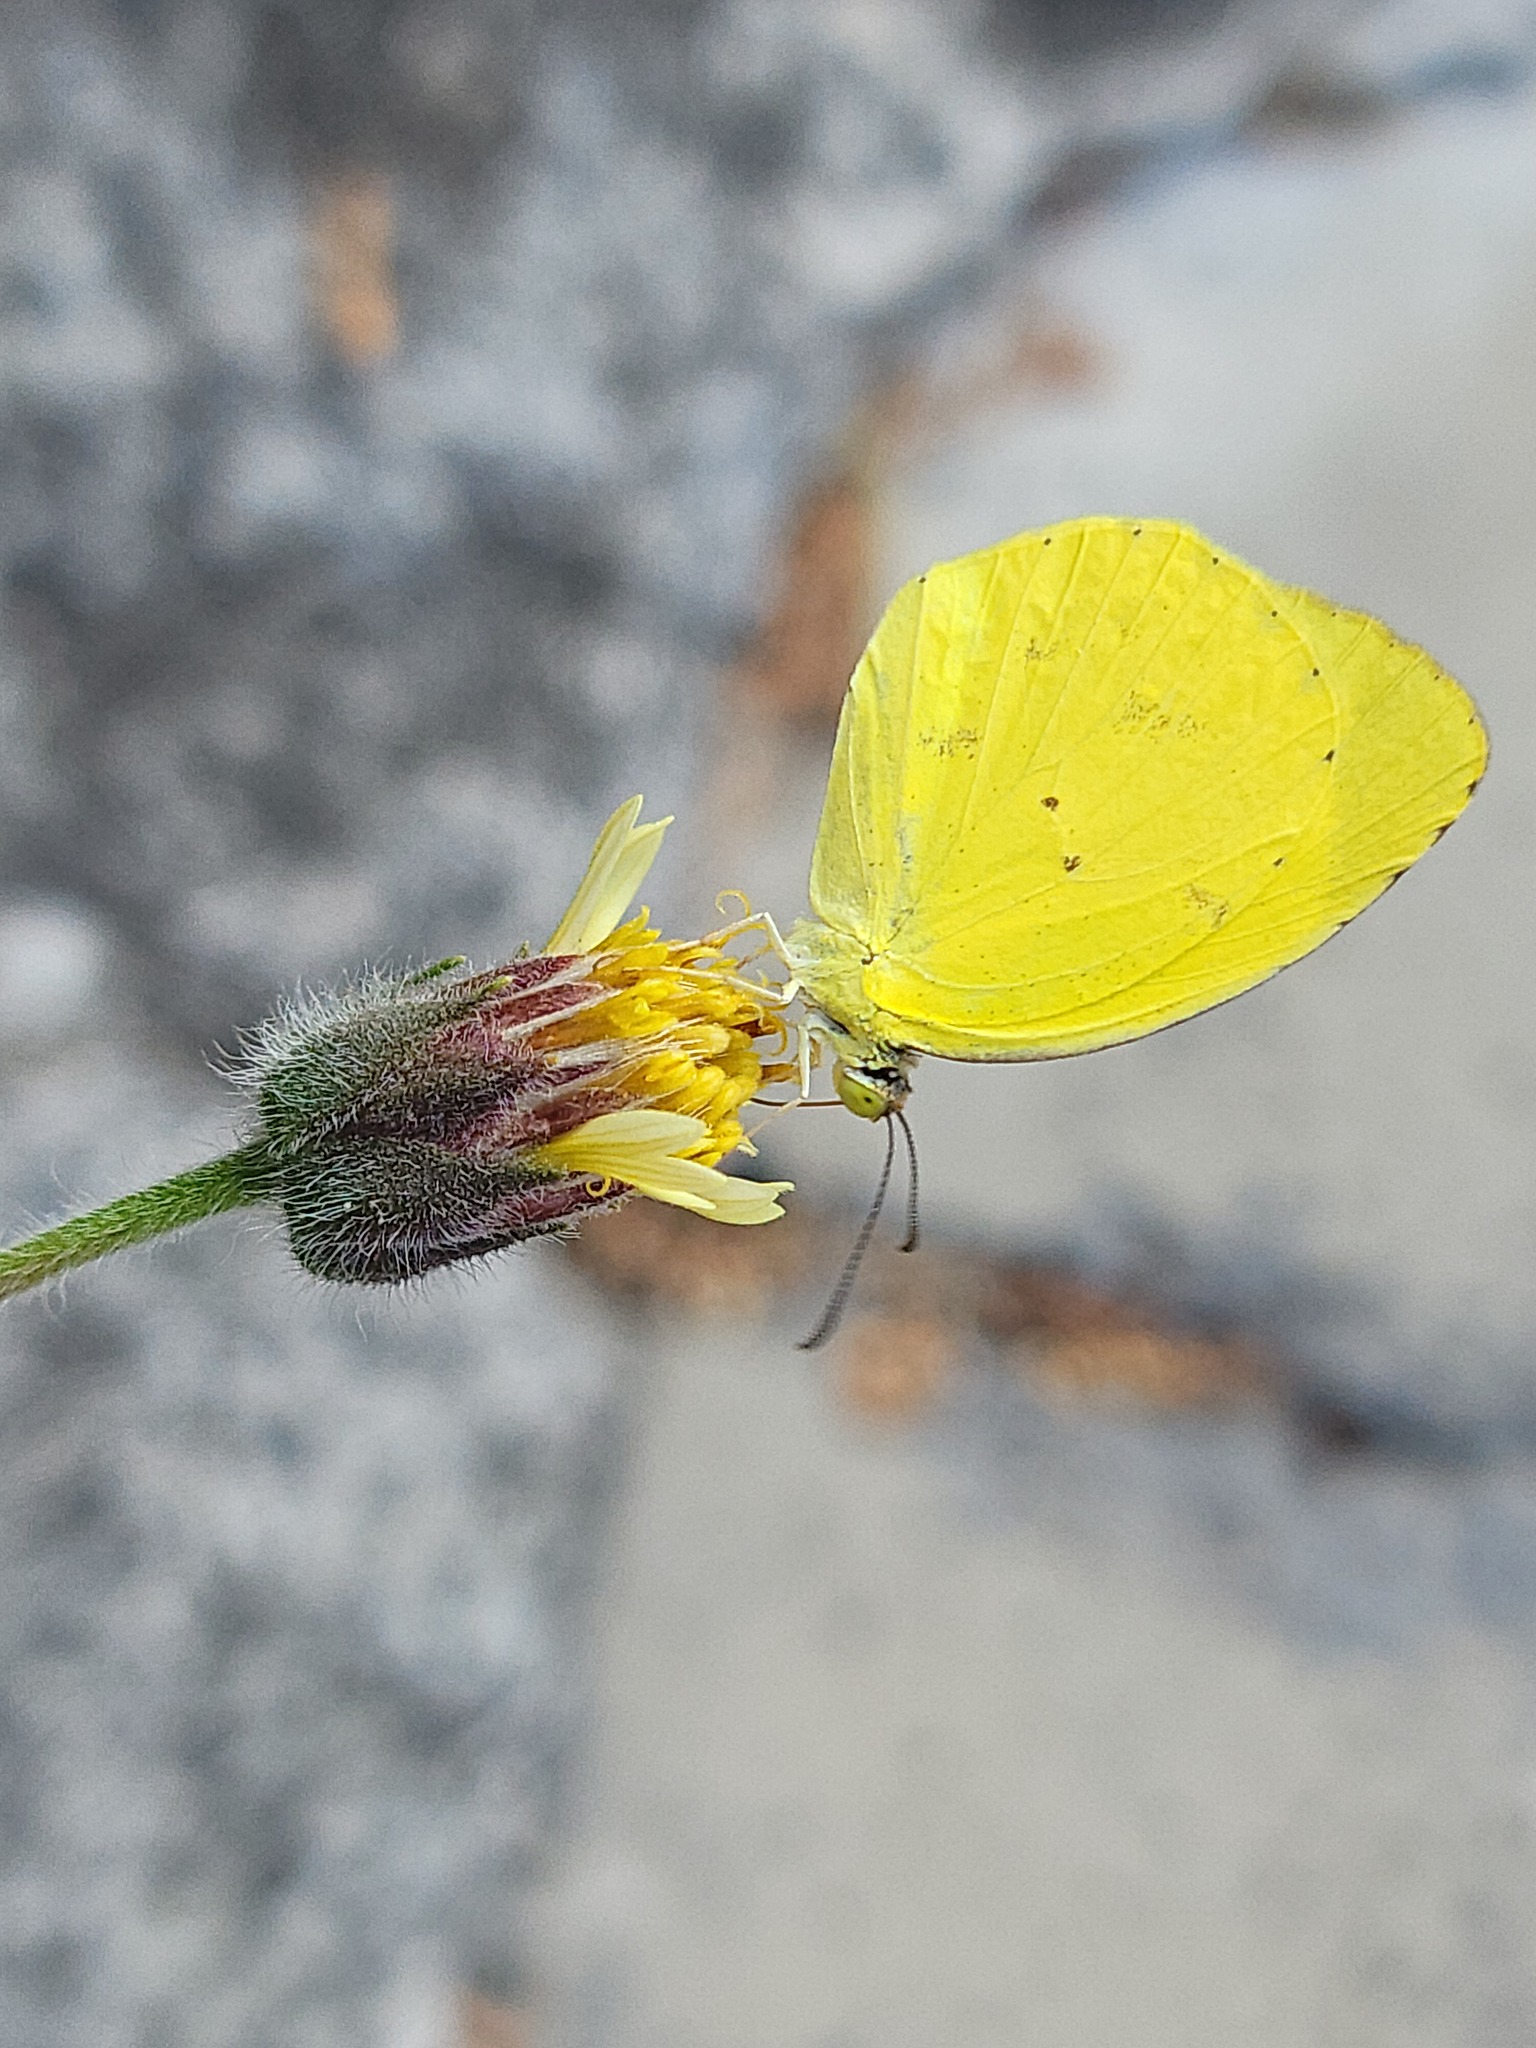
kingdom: Animalia
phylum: Arthropoda
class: Insecta
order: Lepidoptera
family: Pieridae
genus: Pyrisitia
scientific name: Pyrisitia nise
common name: Mimosa yellow
